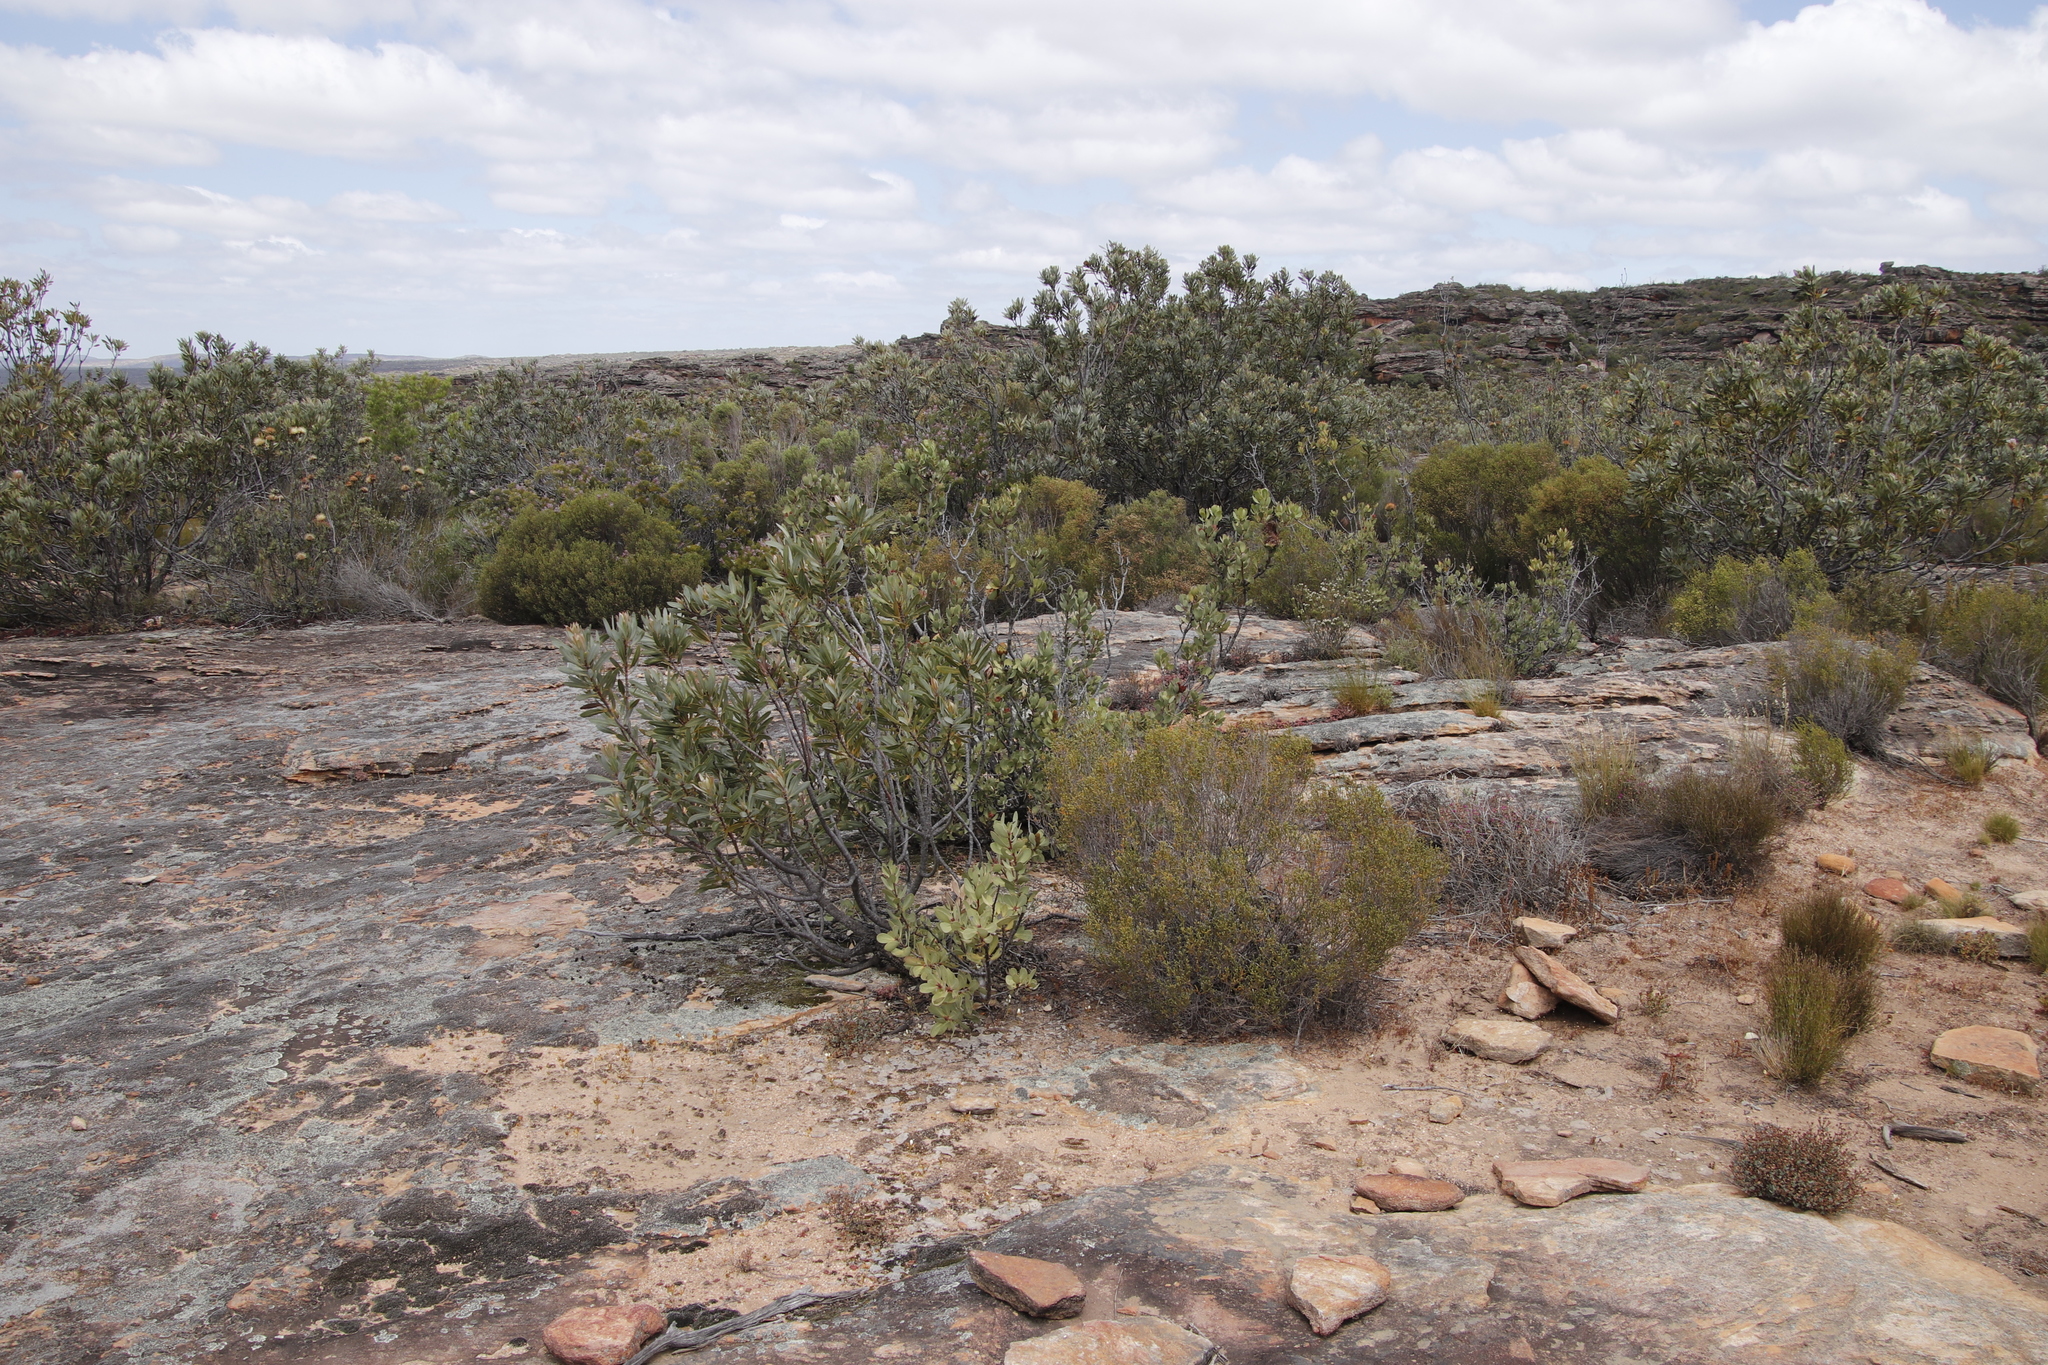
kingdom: Plantae
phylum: Tracheophyta
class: Magnoliopsida
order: Proteales
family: Proteaceae
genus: Protea
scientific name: Protea glabra
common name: Chestnut sugarbush
